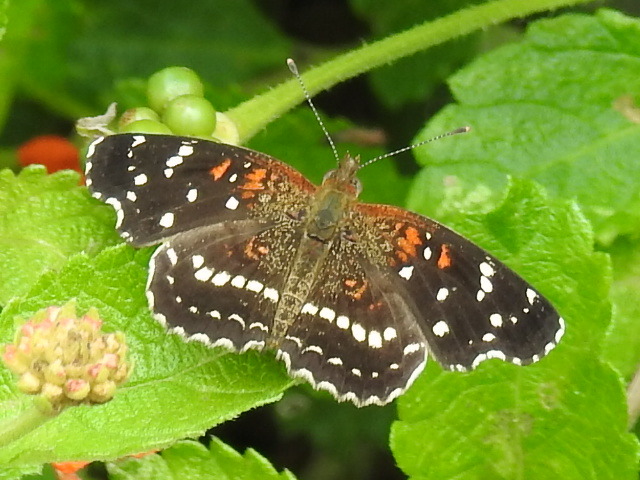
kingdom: Animalia
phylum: Arthropoda
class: Insecta
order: Lepidoptera
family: Nymphalidae
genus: Anthanassa
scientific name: Anthanassa texana
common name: Texan crescent
